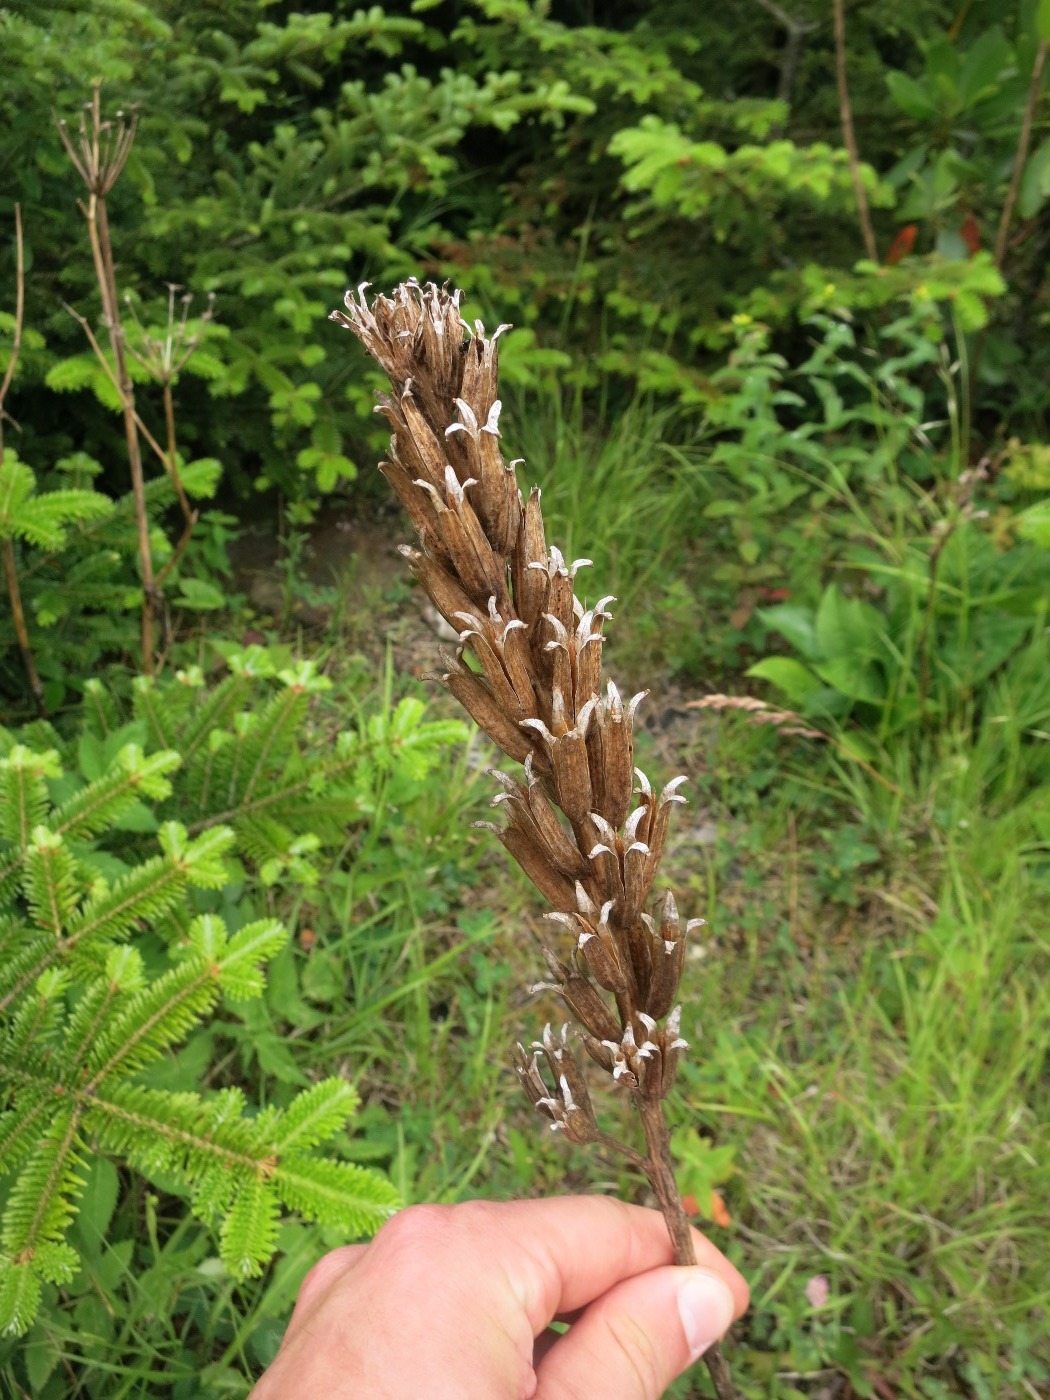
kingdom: Plantae
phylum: Tracheophyta
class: Magnoliopsida
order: Myrtales
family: Onagraceae
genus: Oenothera
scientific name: Oenothera biennis
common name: Common evening-primrose
